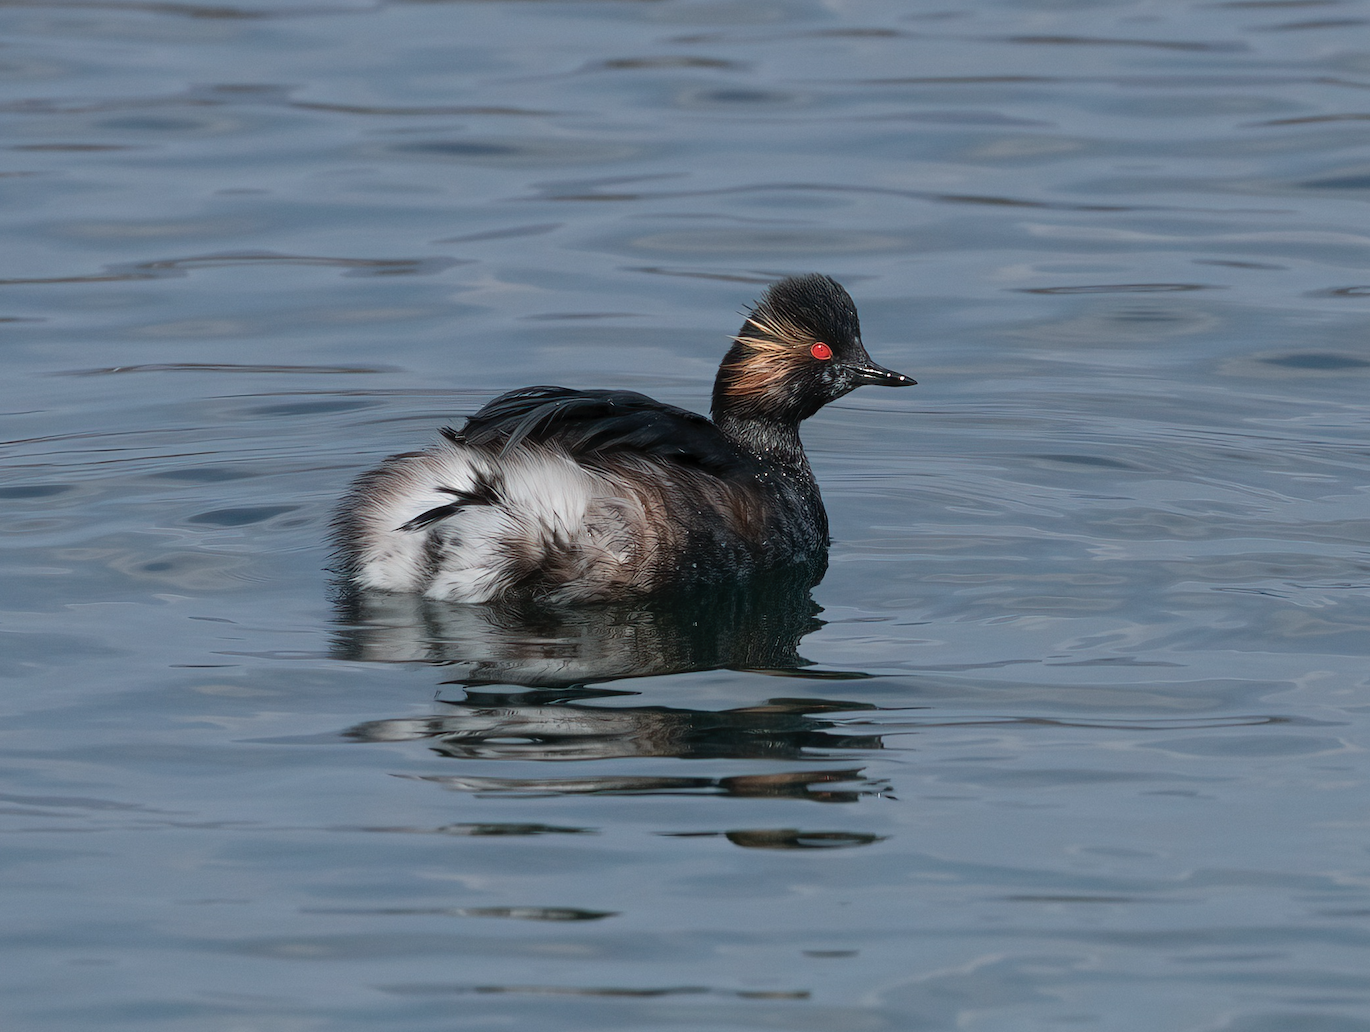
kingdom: Animalia
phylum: Chordata
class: Aves
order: Podicipediformes
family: Podicipedidae
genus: Podiceps
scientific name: Podiceps nigricollis
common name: Black-necked grebe
